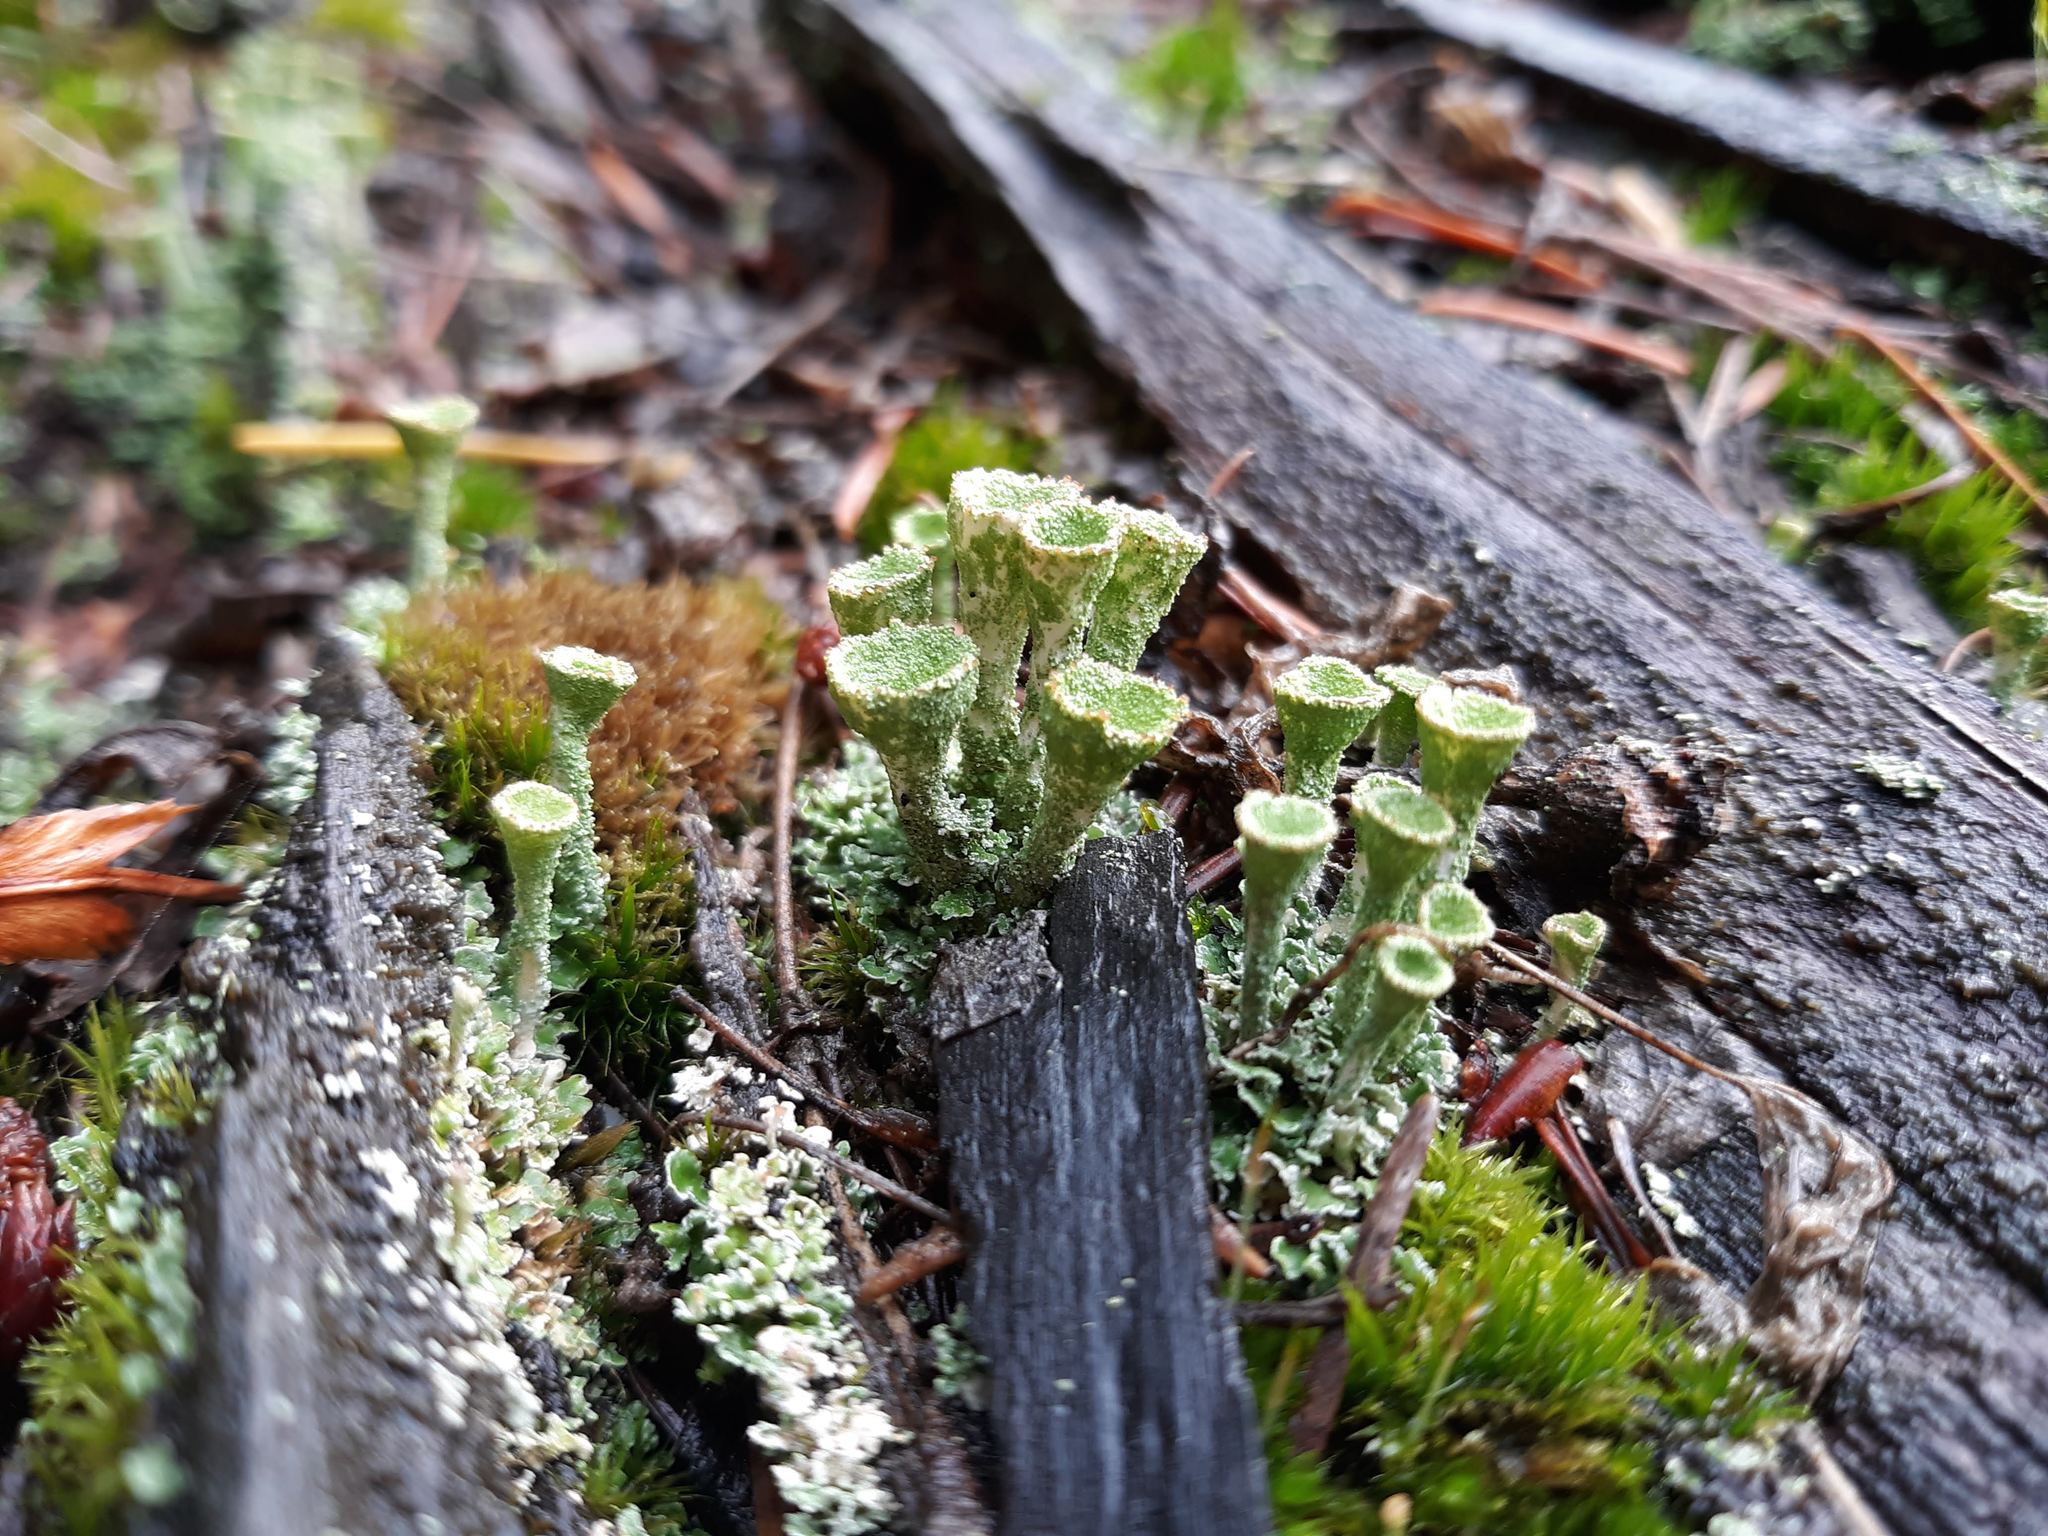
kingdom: Fungi
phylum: Ascomycota
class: Lecanoromycetes
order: Lecanorales
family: Cladoniaceae
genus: Cladonia
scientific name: Cladonia fimbriata
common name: Powdered trumpet lichen
